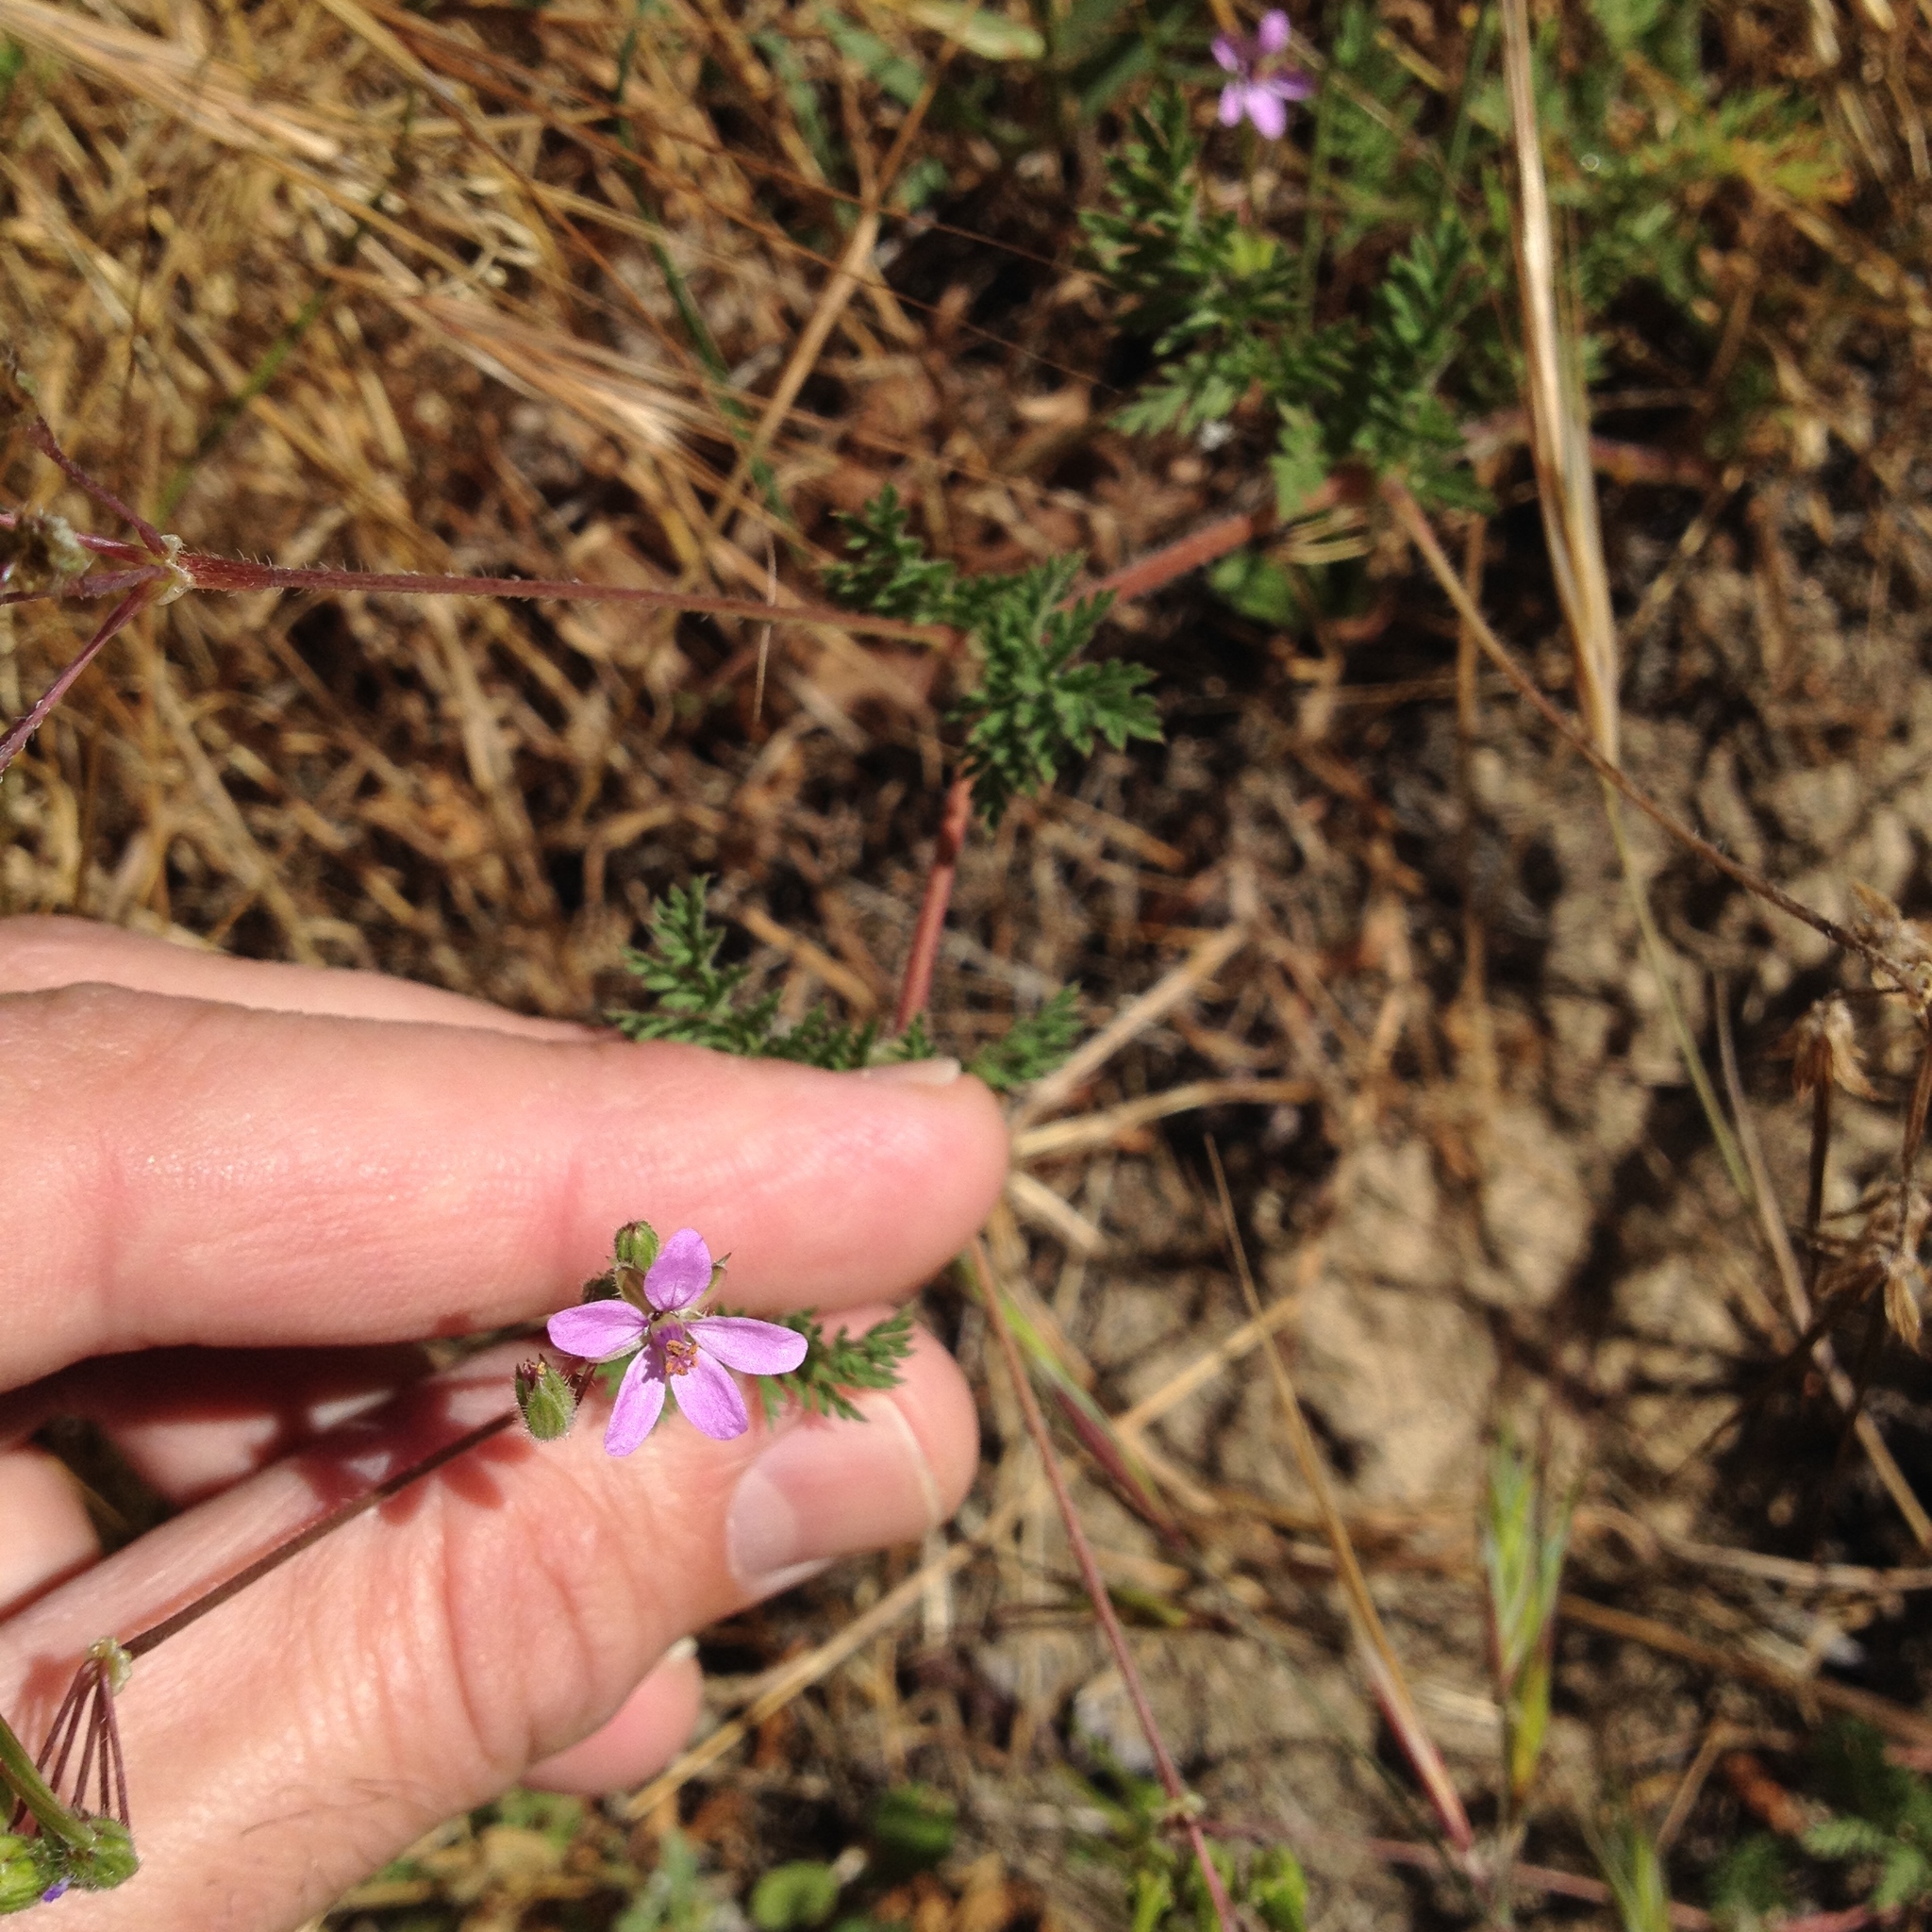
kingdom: Plantae
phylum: Tracheophyta
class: Magnoliopsida
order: Geraniales
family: Geraniaceae
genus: Erodium
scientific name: Erodium cicutarium
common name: Common stork's-bill
